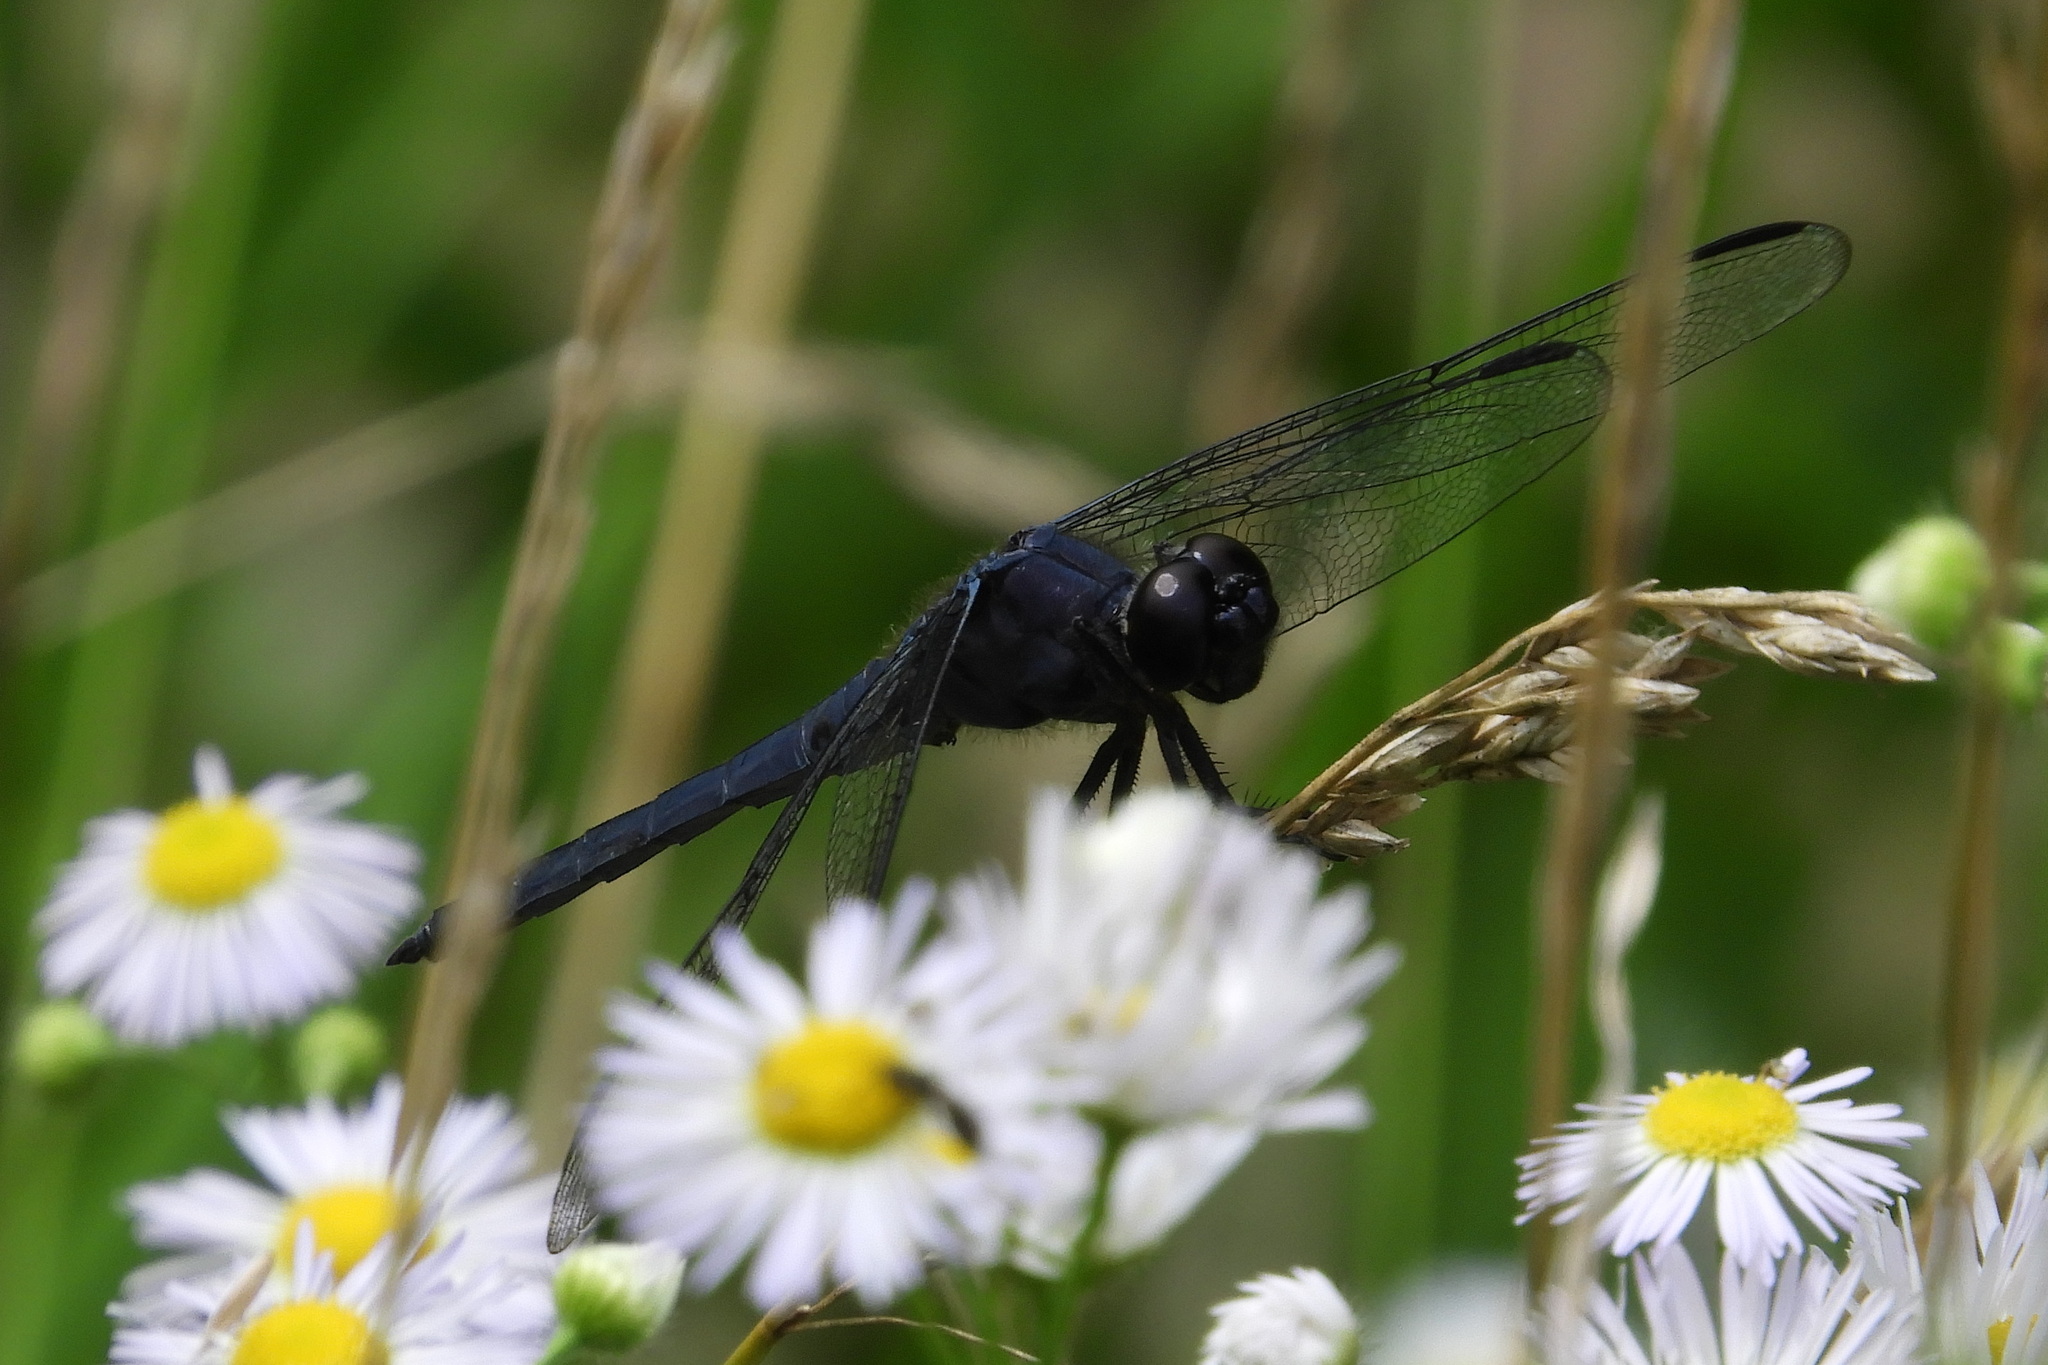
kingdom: Animalia
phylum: Arthropoda
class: Insecta
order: Odonata
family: Libellulidae
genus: Libellula
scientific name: Libellula incesta
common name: Slaty skimmer
